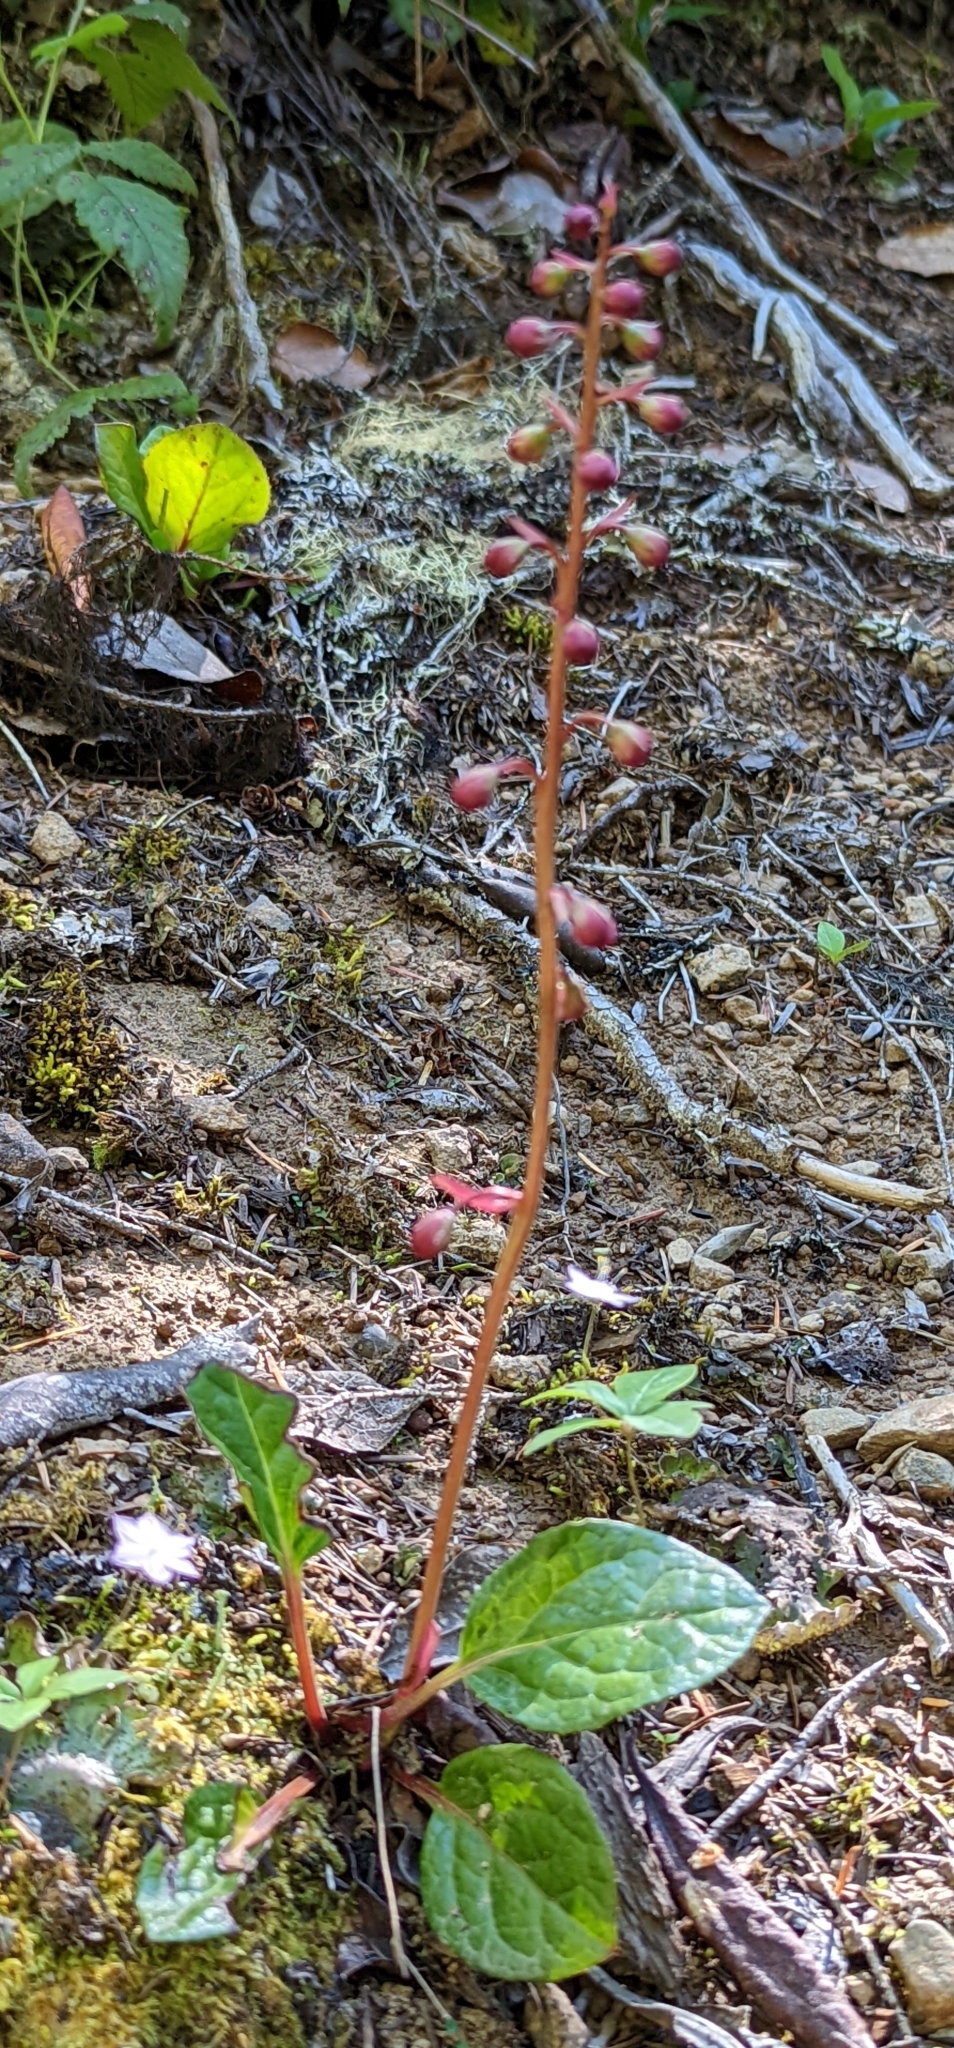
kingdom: Plantae
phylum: Tracheophyta
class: Magnoliopsida
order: Ericales
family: Ericaceae
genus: Pyrola
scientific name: Pyrola asarifolia
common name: Bog wintergreen
